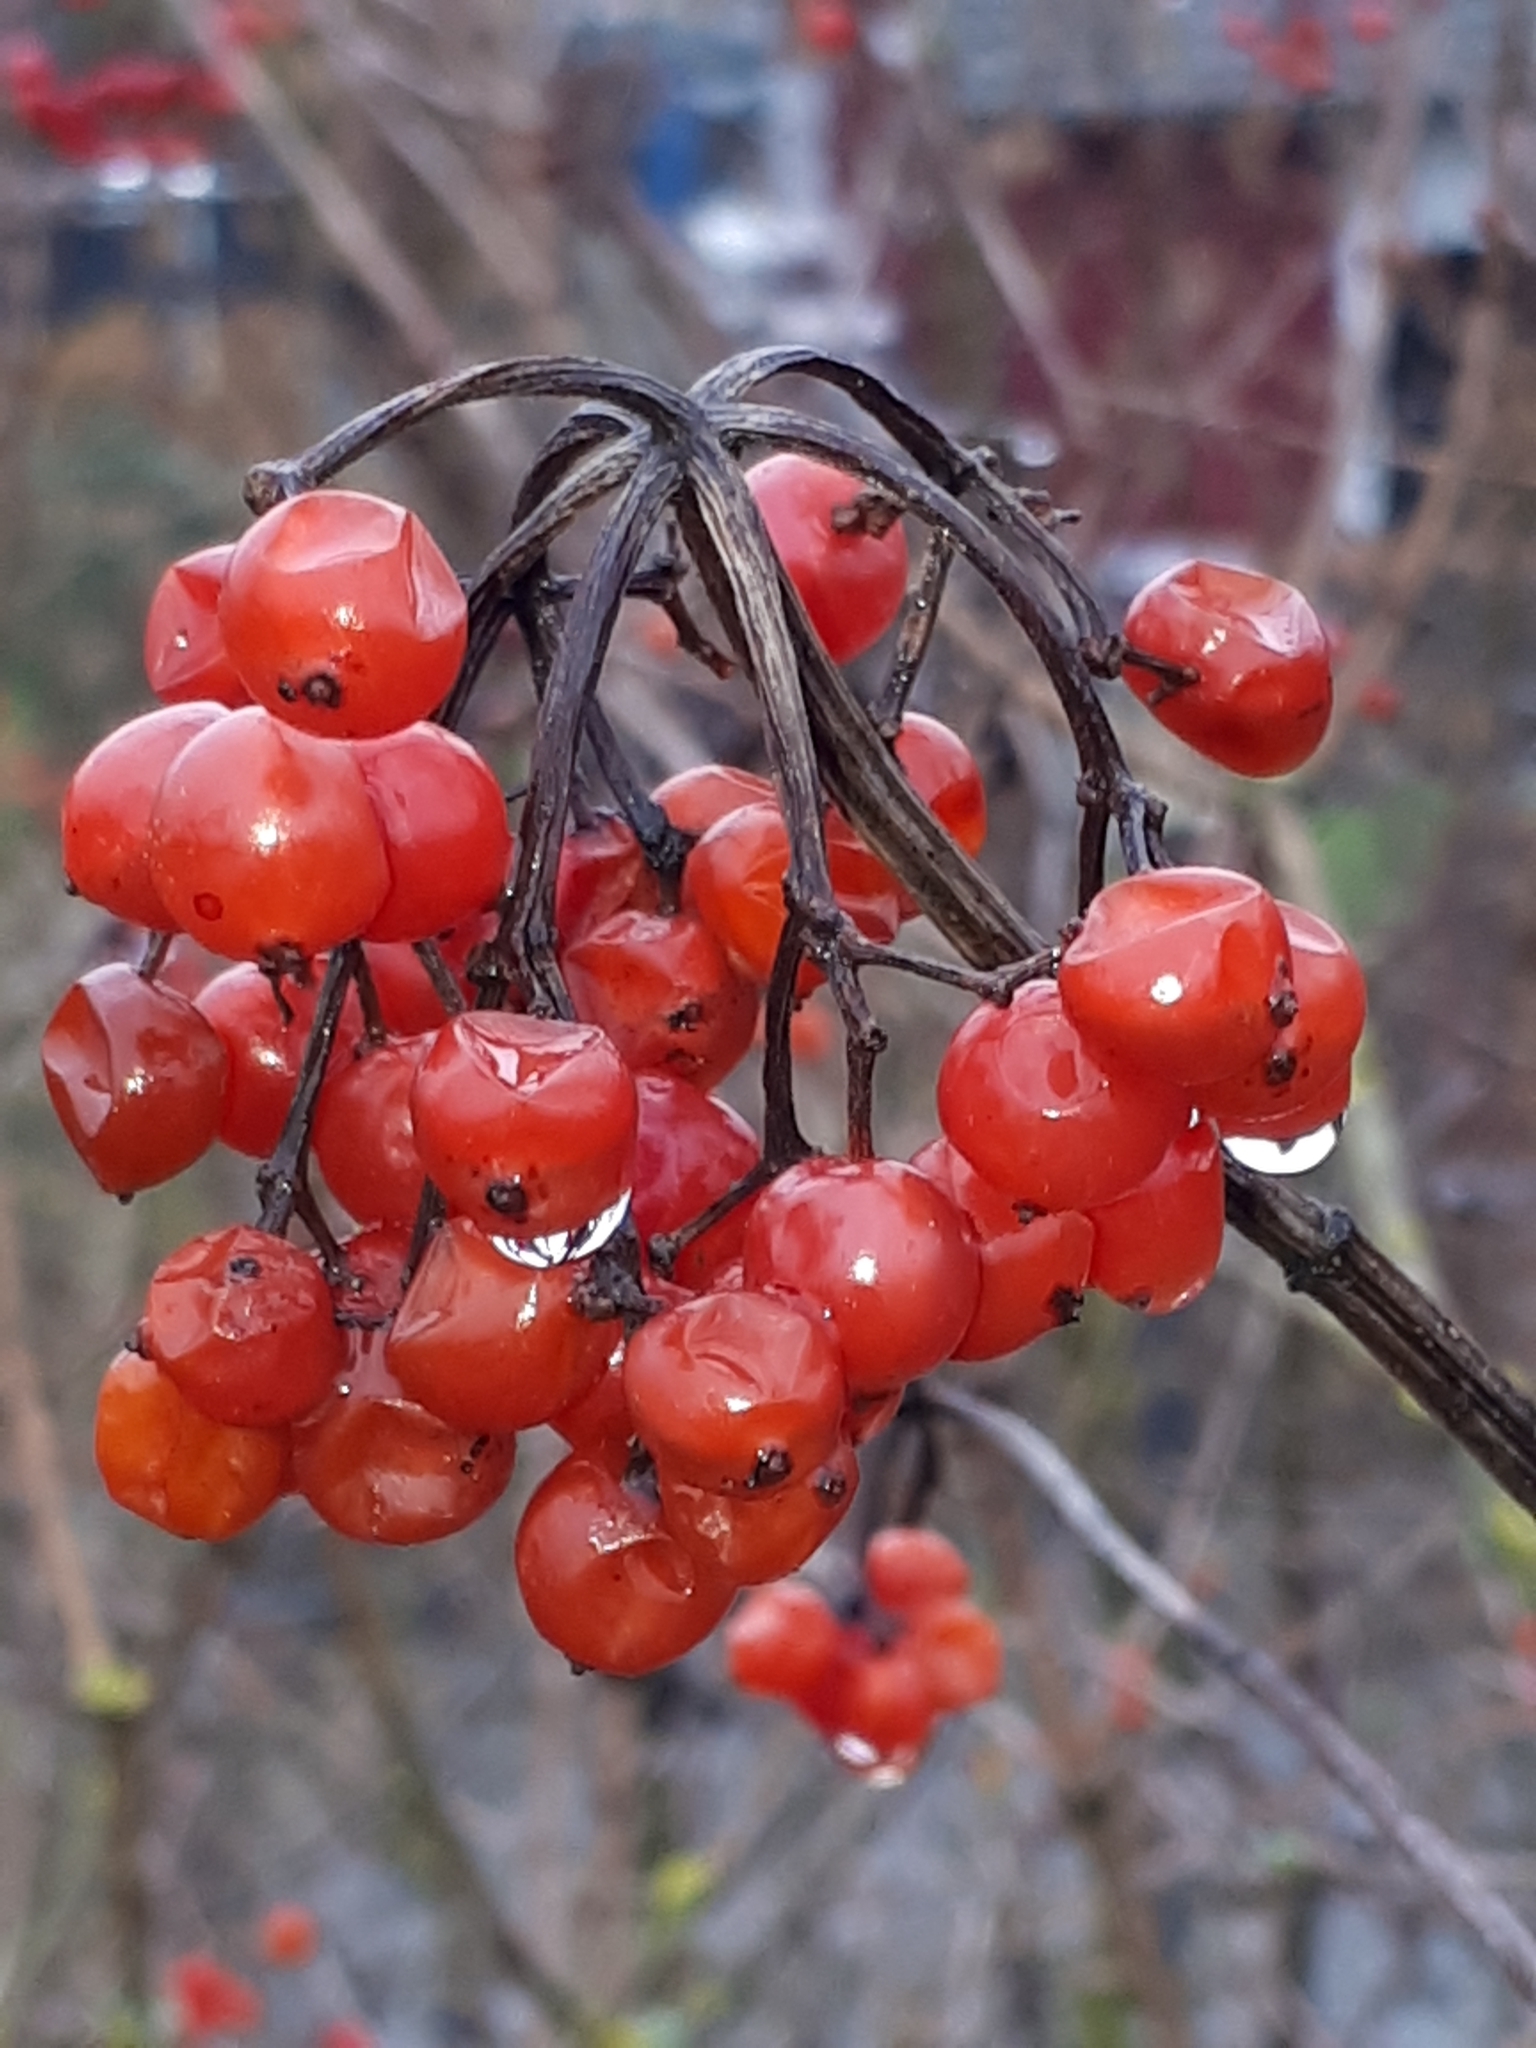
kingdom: Plantae
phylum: Tracheophyta
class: Magnoliopsida
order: Dipsacales
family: Viburnaceae
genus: Viburnum
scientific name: Viburnum opulus
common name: Guelder-rose
